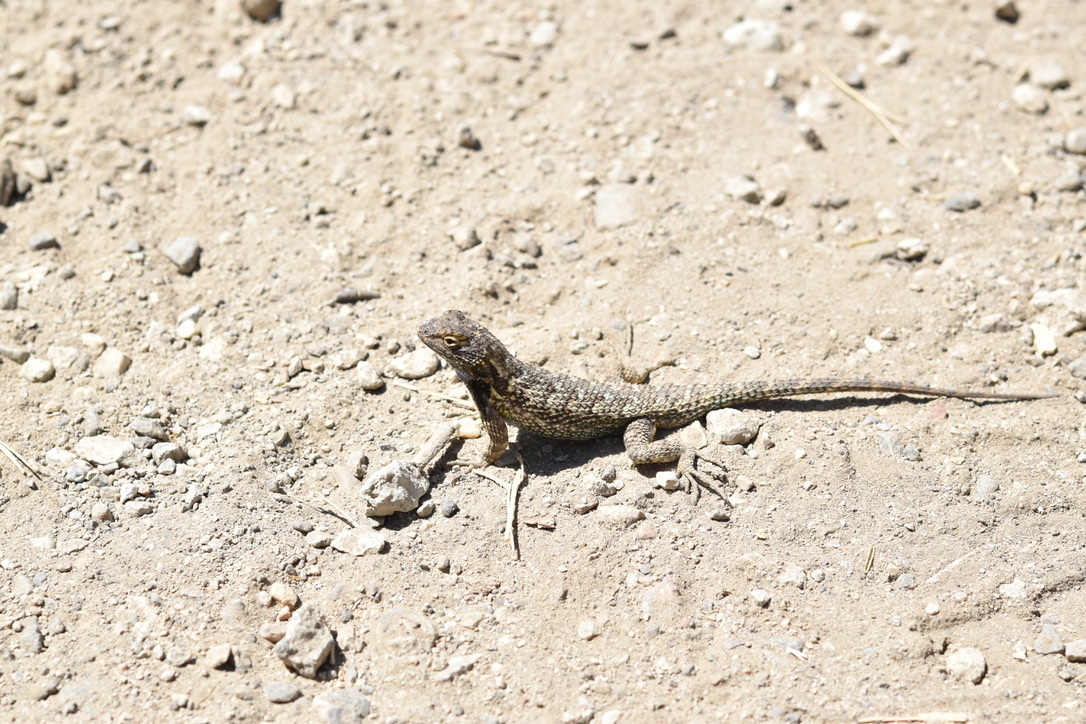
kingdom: Animalia
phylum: Chordata
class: Squamata
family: Phrynosomatidae
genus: Sceloporus
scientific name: Sceloporus occidentalis
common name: Western fence lizard
